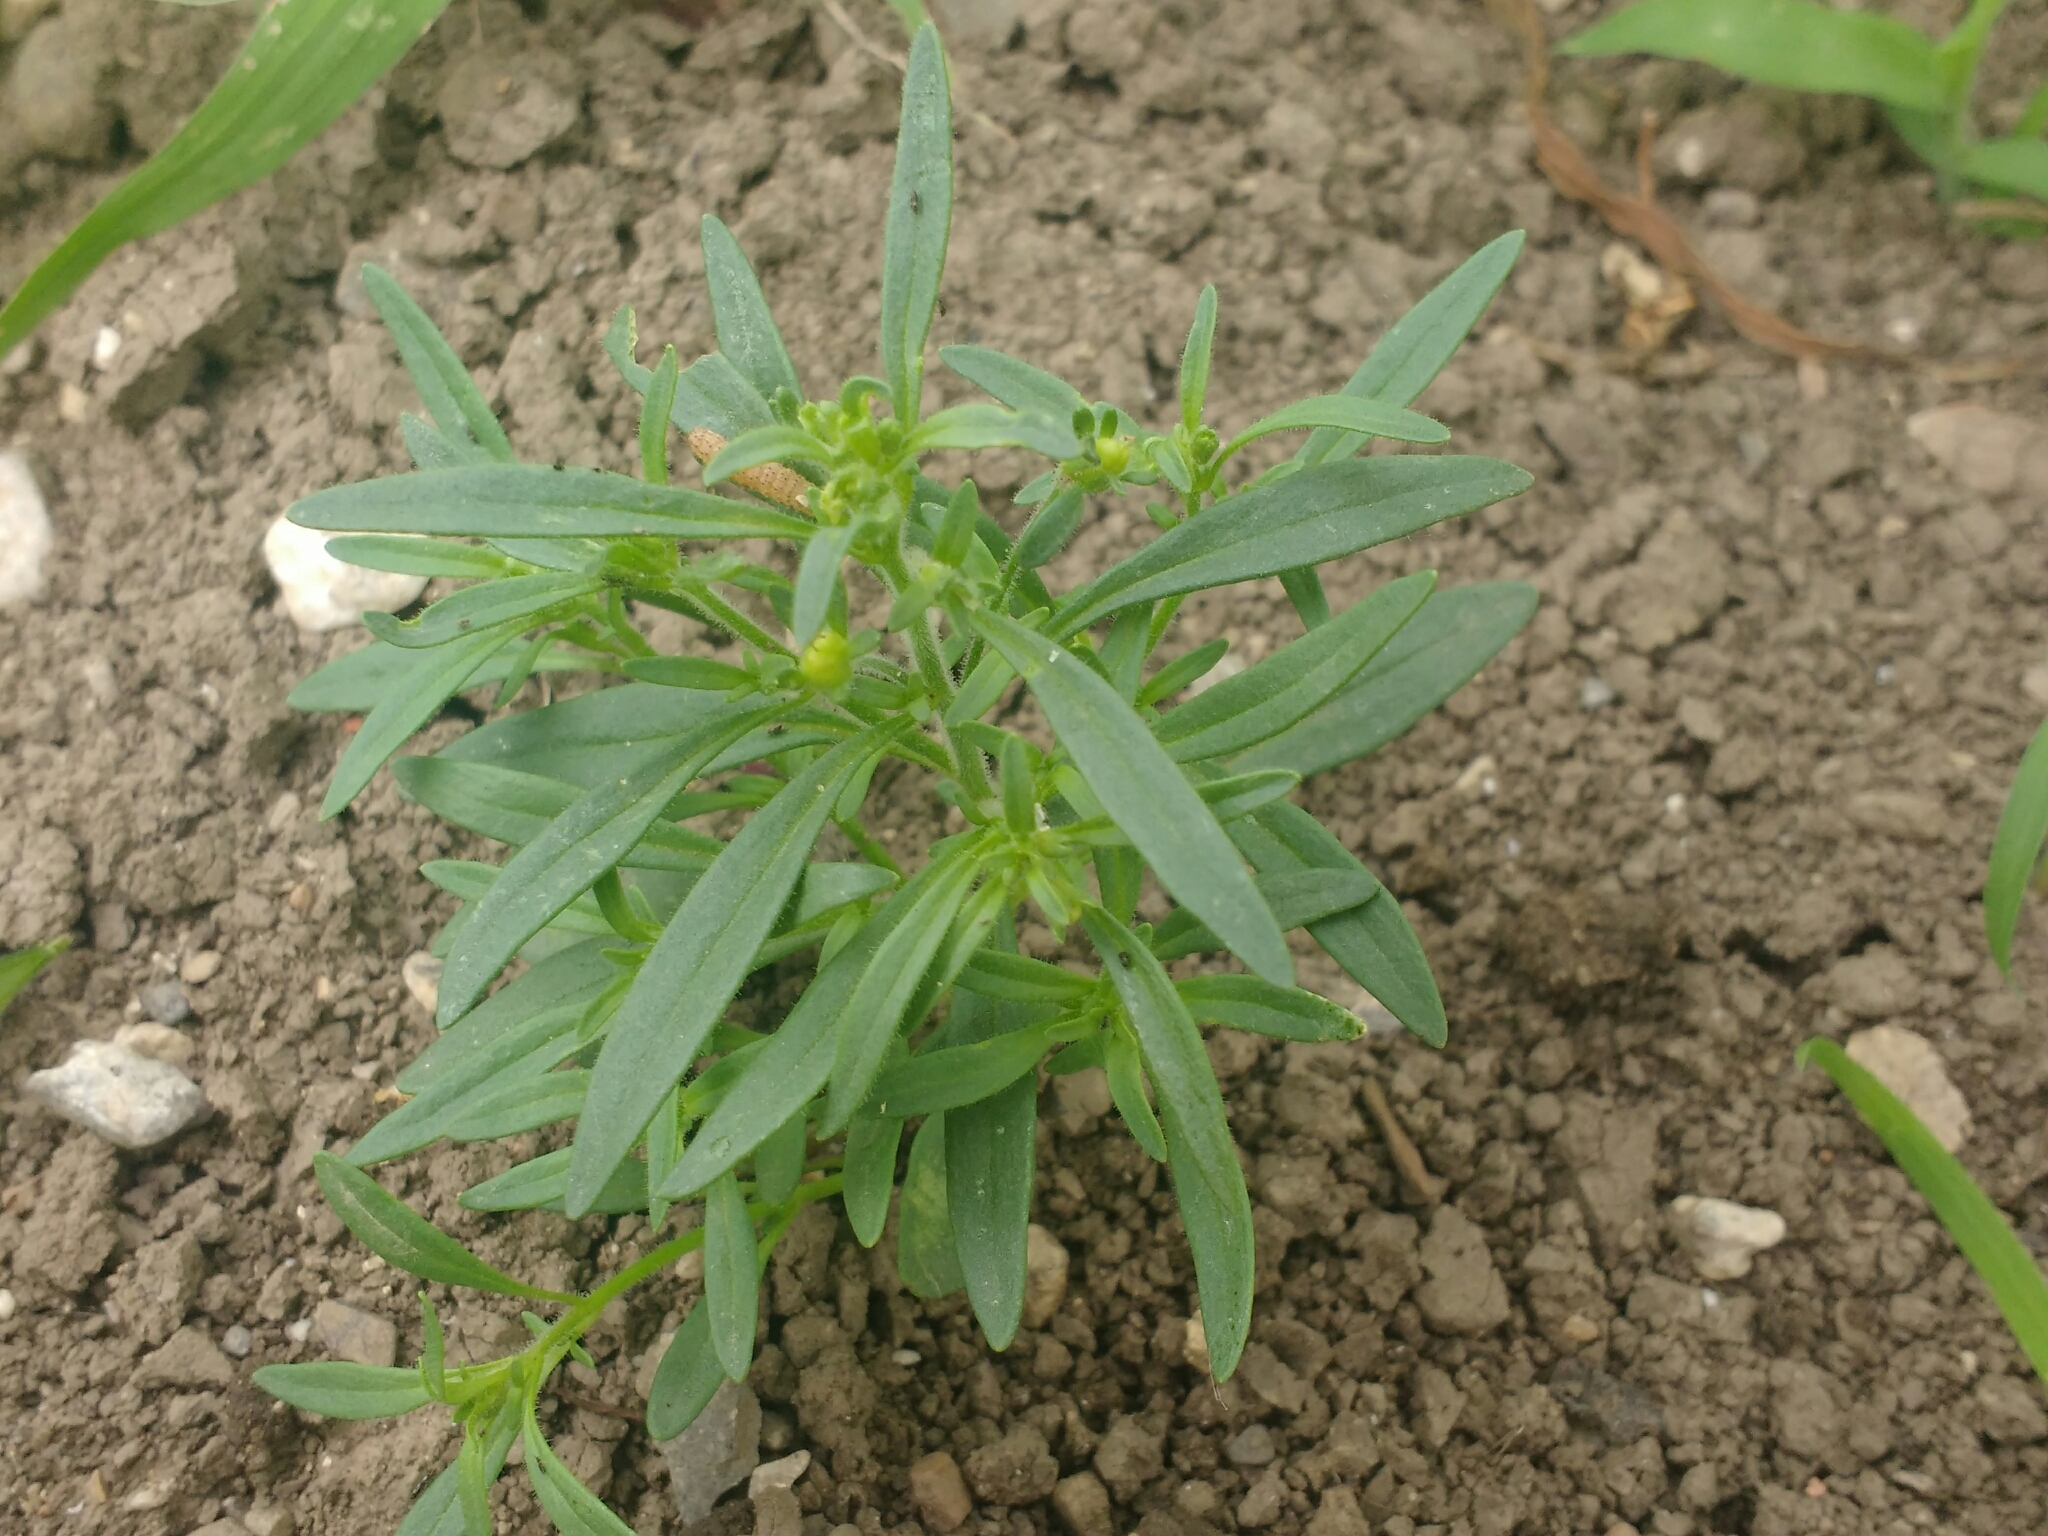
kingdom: Plantae
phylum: Tracheophyta
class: Magnoliopsida
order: Lamiales
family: Plantaginaceae
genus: Chaenorhinum
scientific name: Chaenorhinum minus
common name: Dwarf snapdragon
